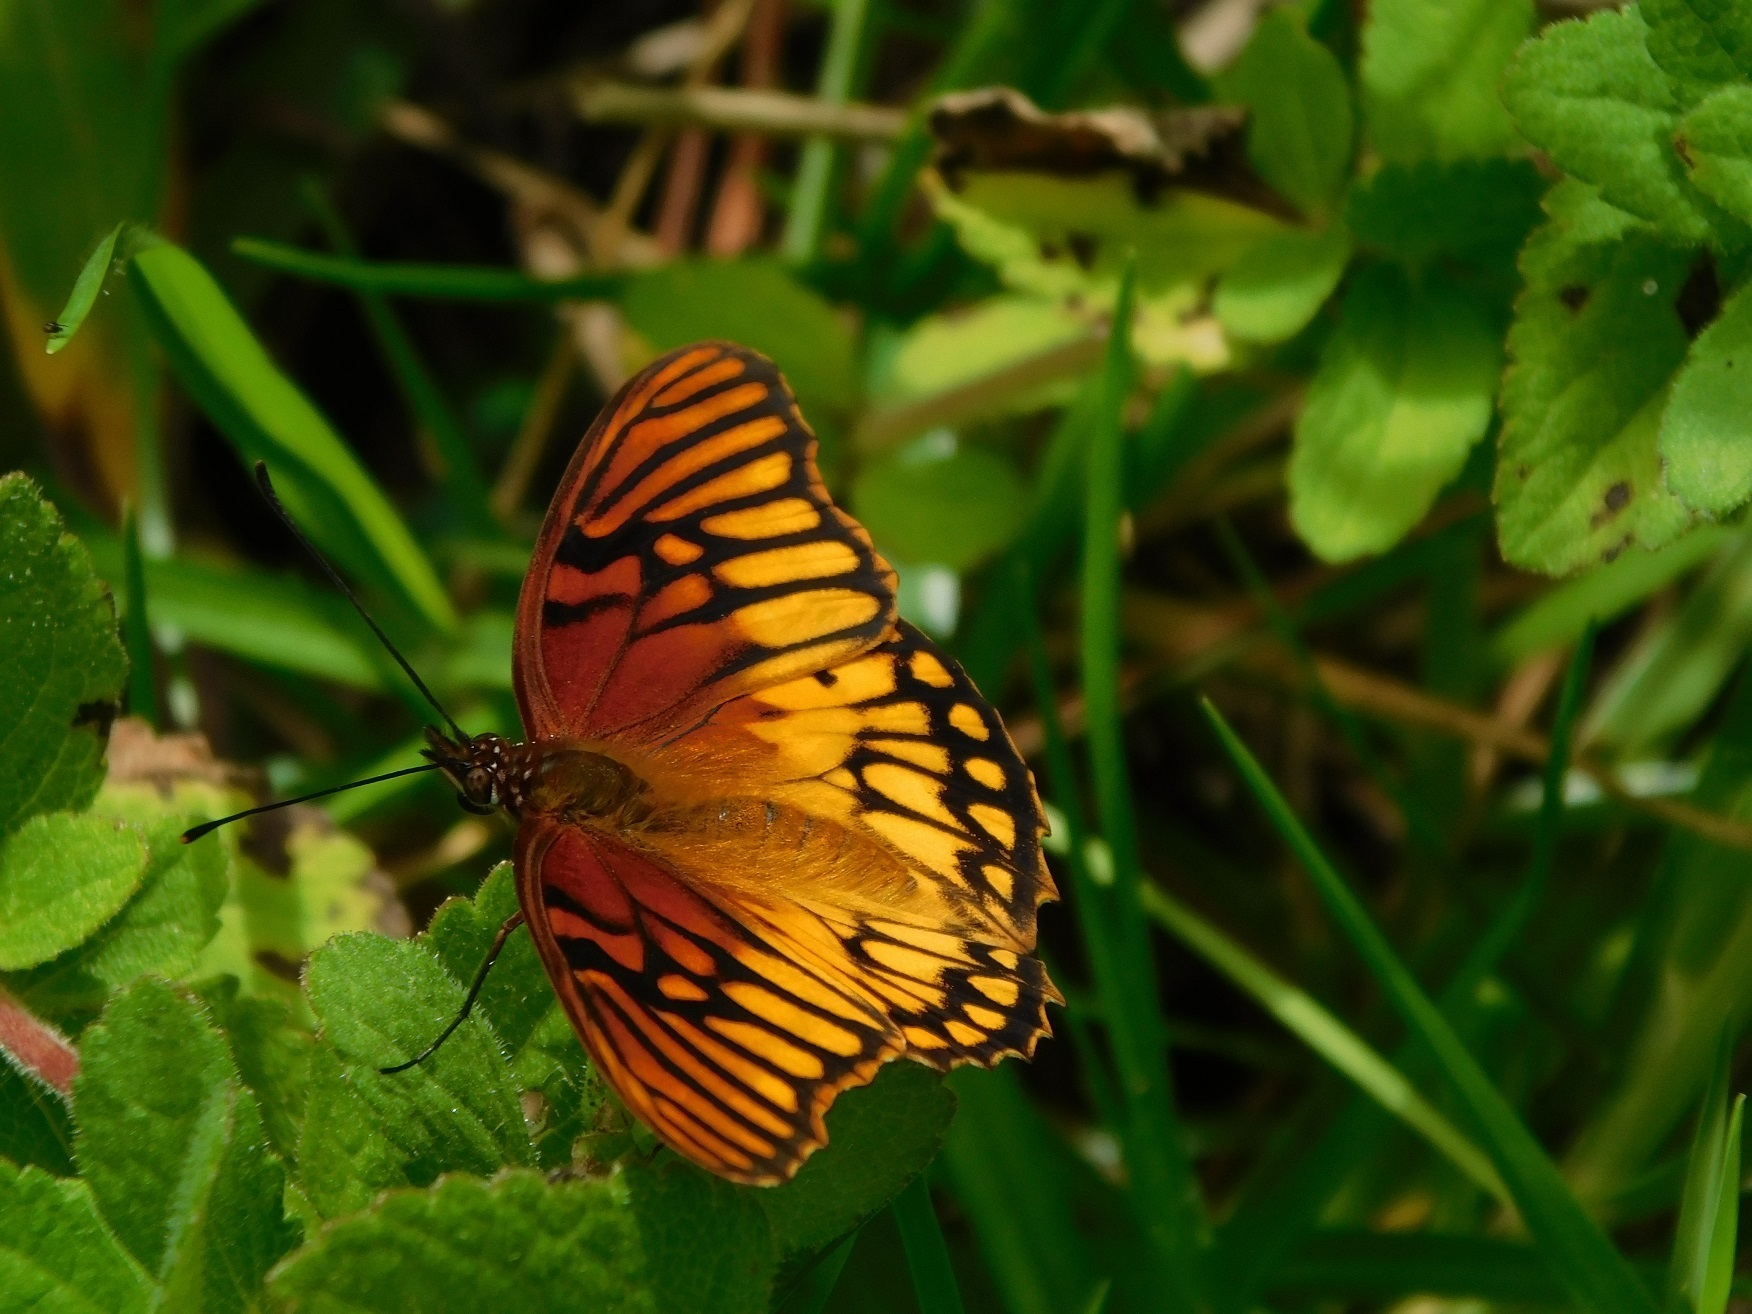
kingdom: Animalia
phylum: Arthropoda
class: Insecta
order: Lepidoptera
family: Nymphalidae
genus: Dione
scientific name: Dione moneta
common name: Mexican silverspot
